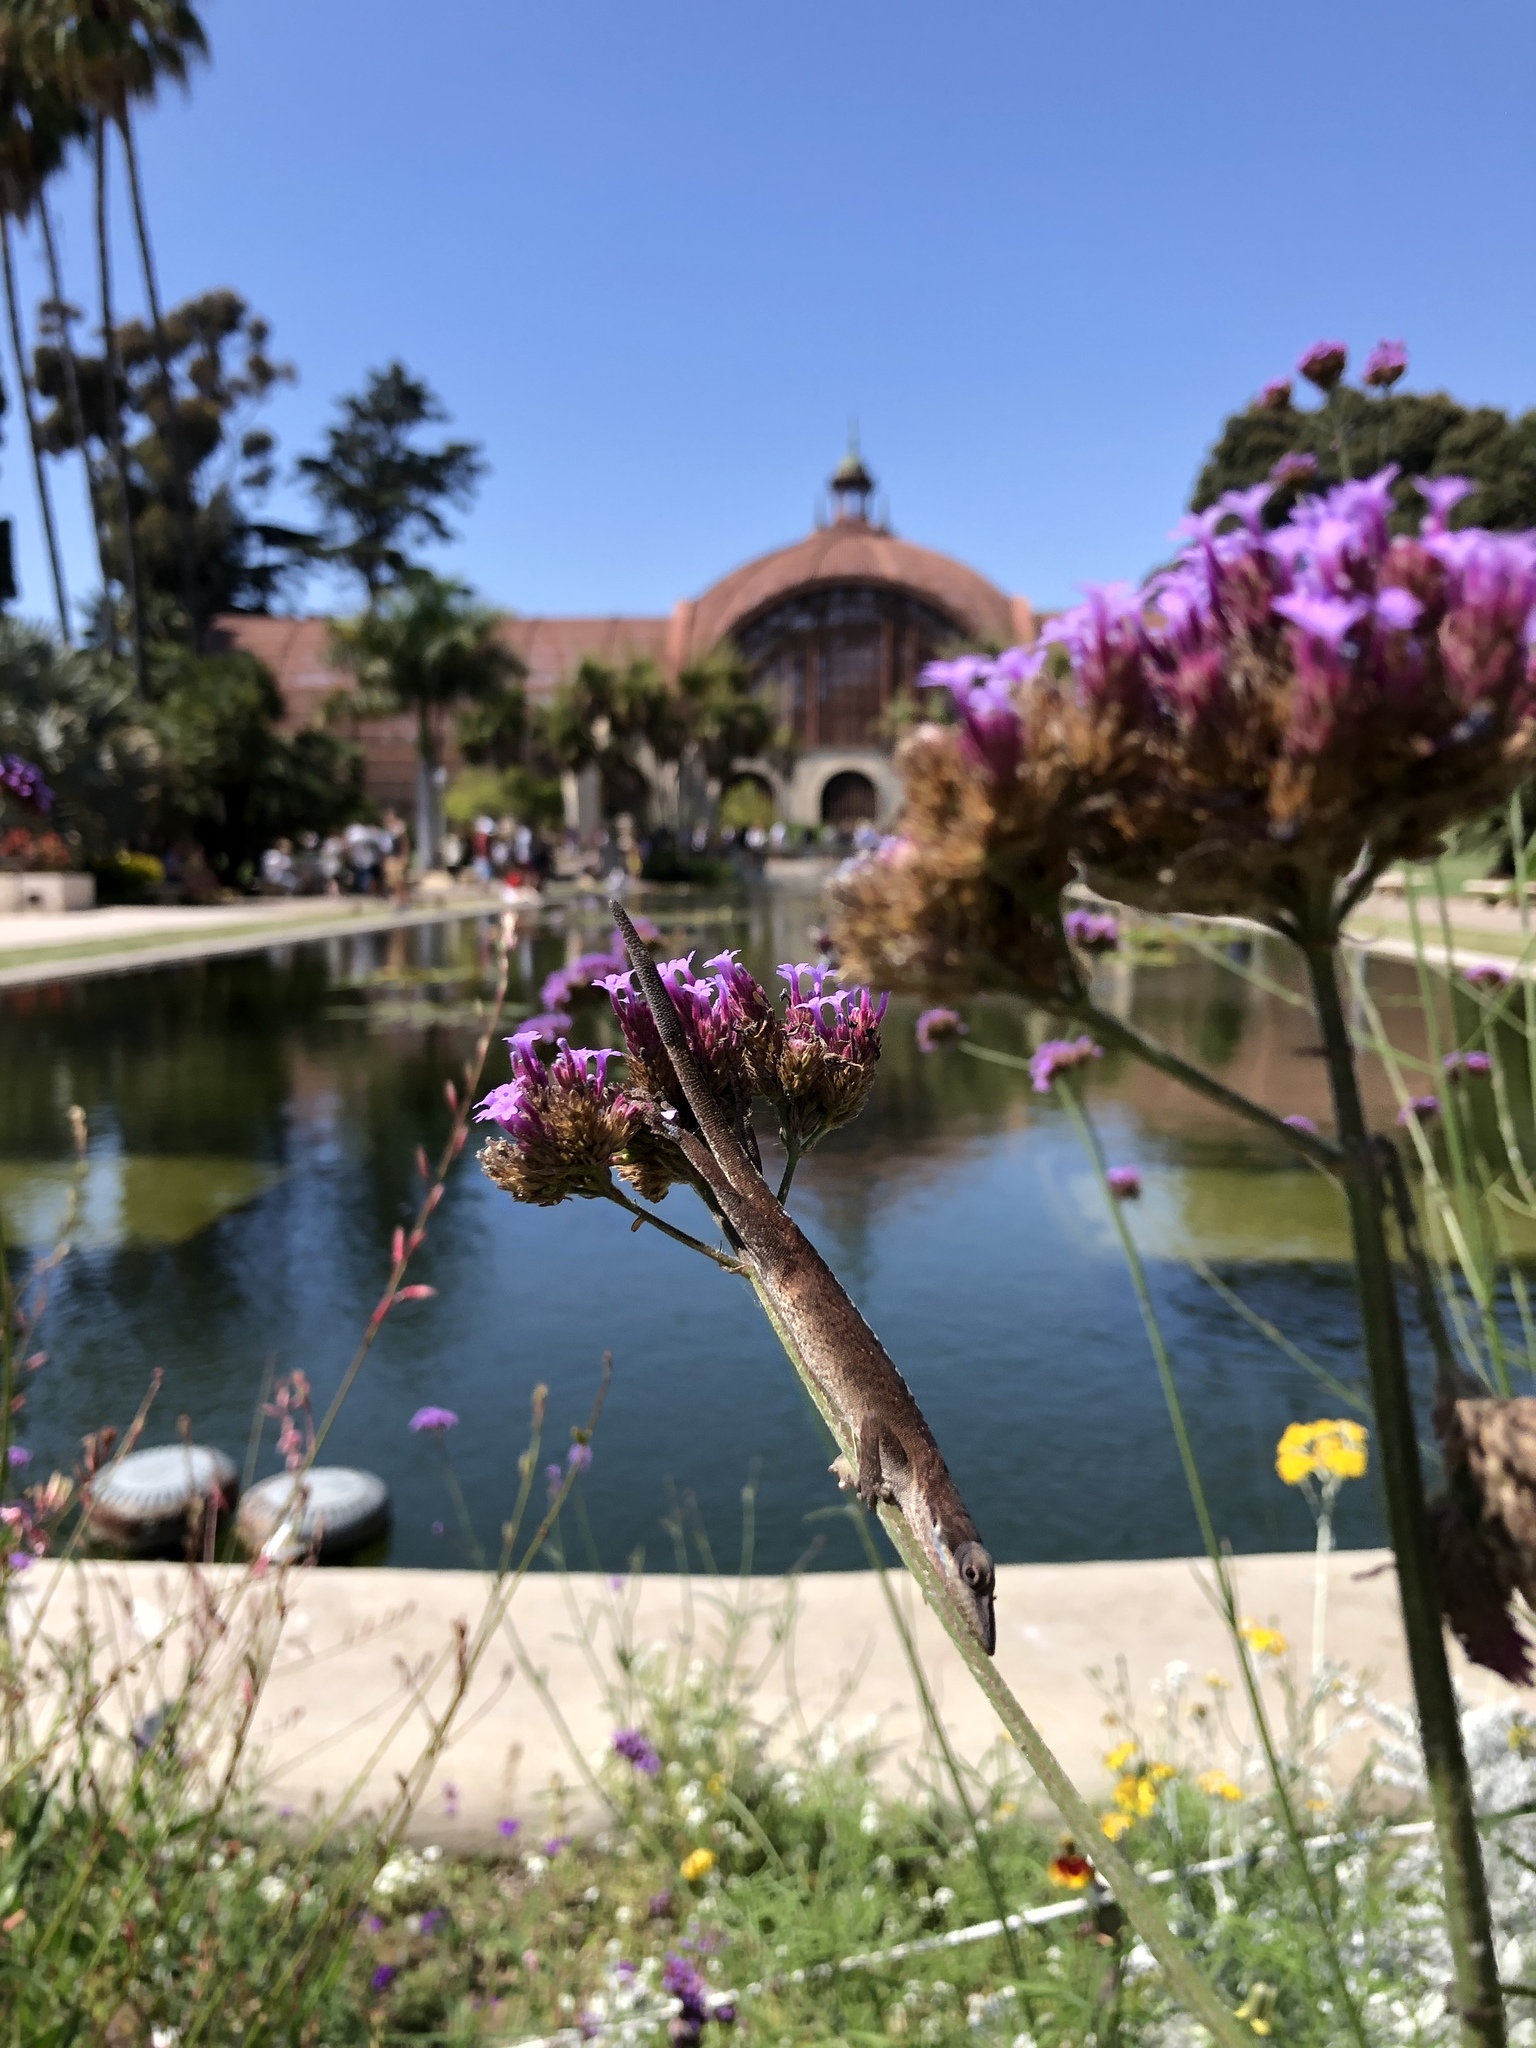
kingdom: Animalia
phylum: Chordata
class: Squamata
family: Dactyloidae
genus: Anolis
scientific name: Anolis carolinensis
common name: Green anole
